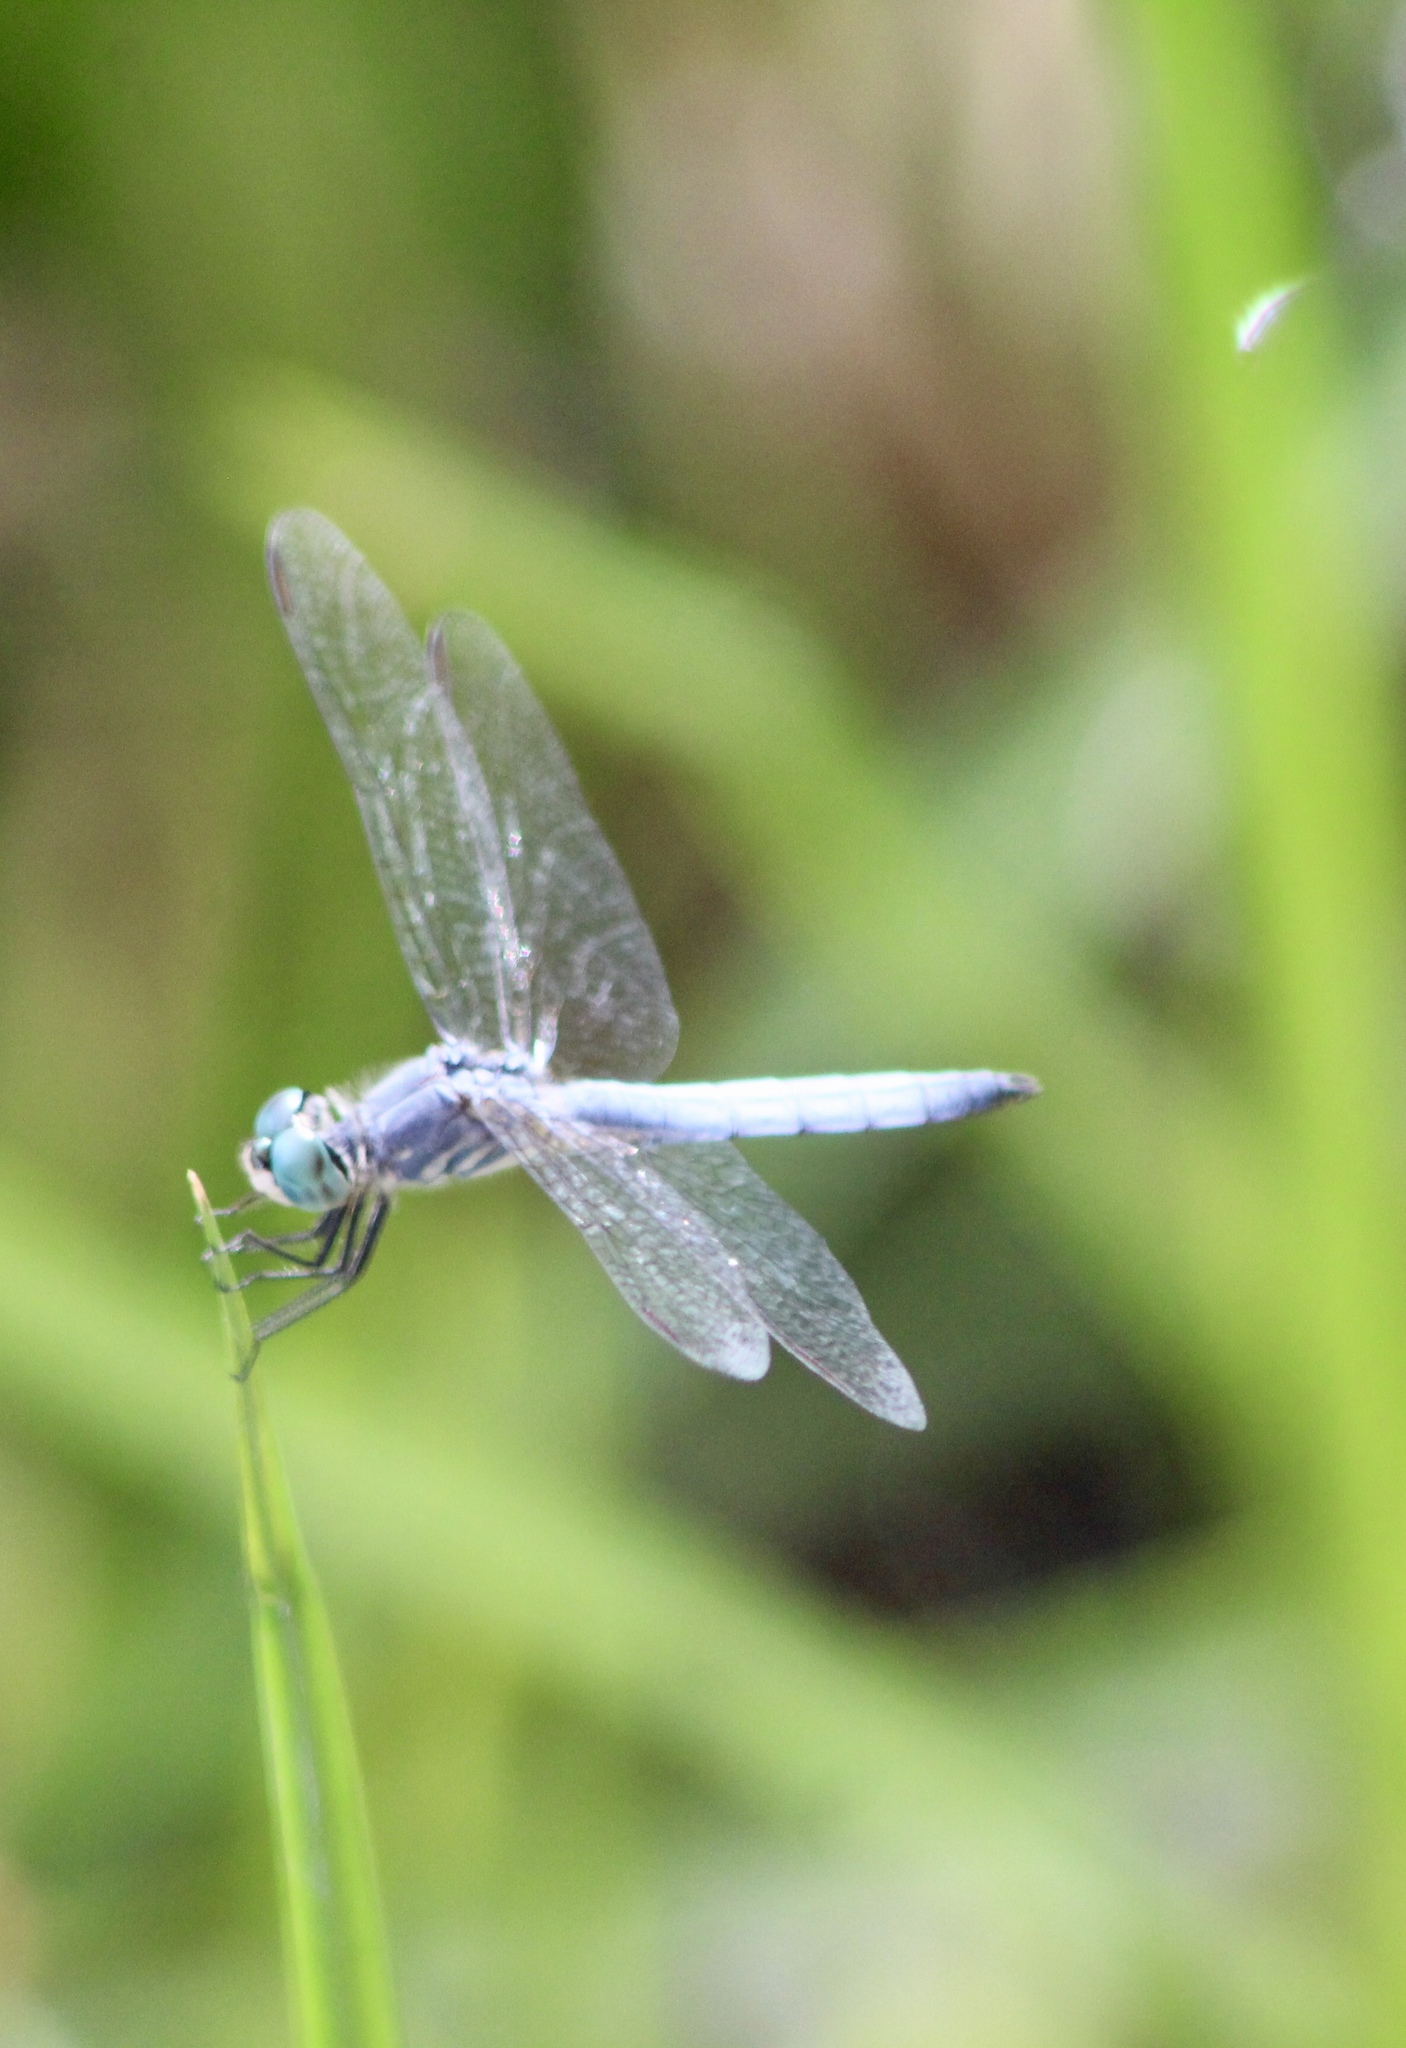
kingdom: Animalia
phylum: Arthropoda
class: Insecta
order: Odonata
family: Libellulidae
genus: Pachydiplax
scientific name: Pachydiplax longipennis
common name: Blue dasher
